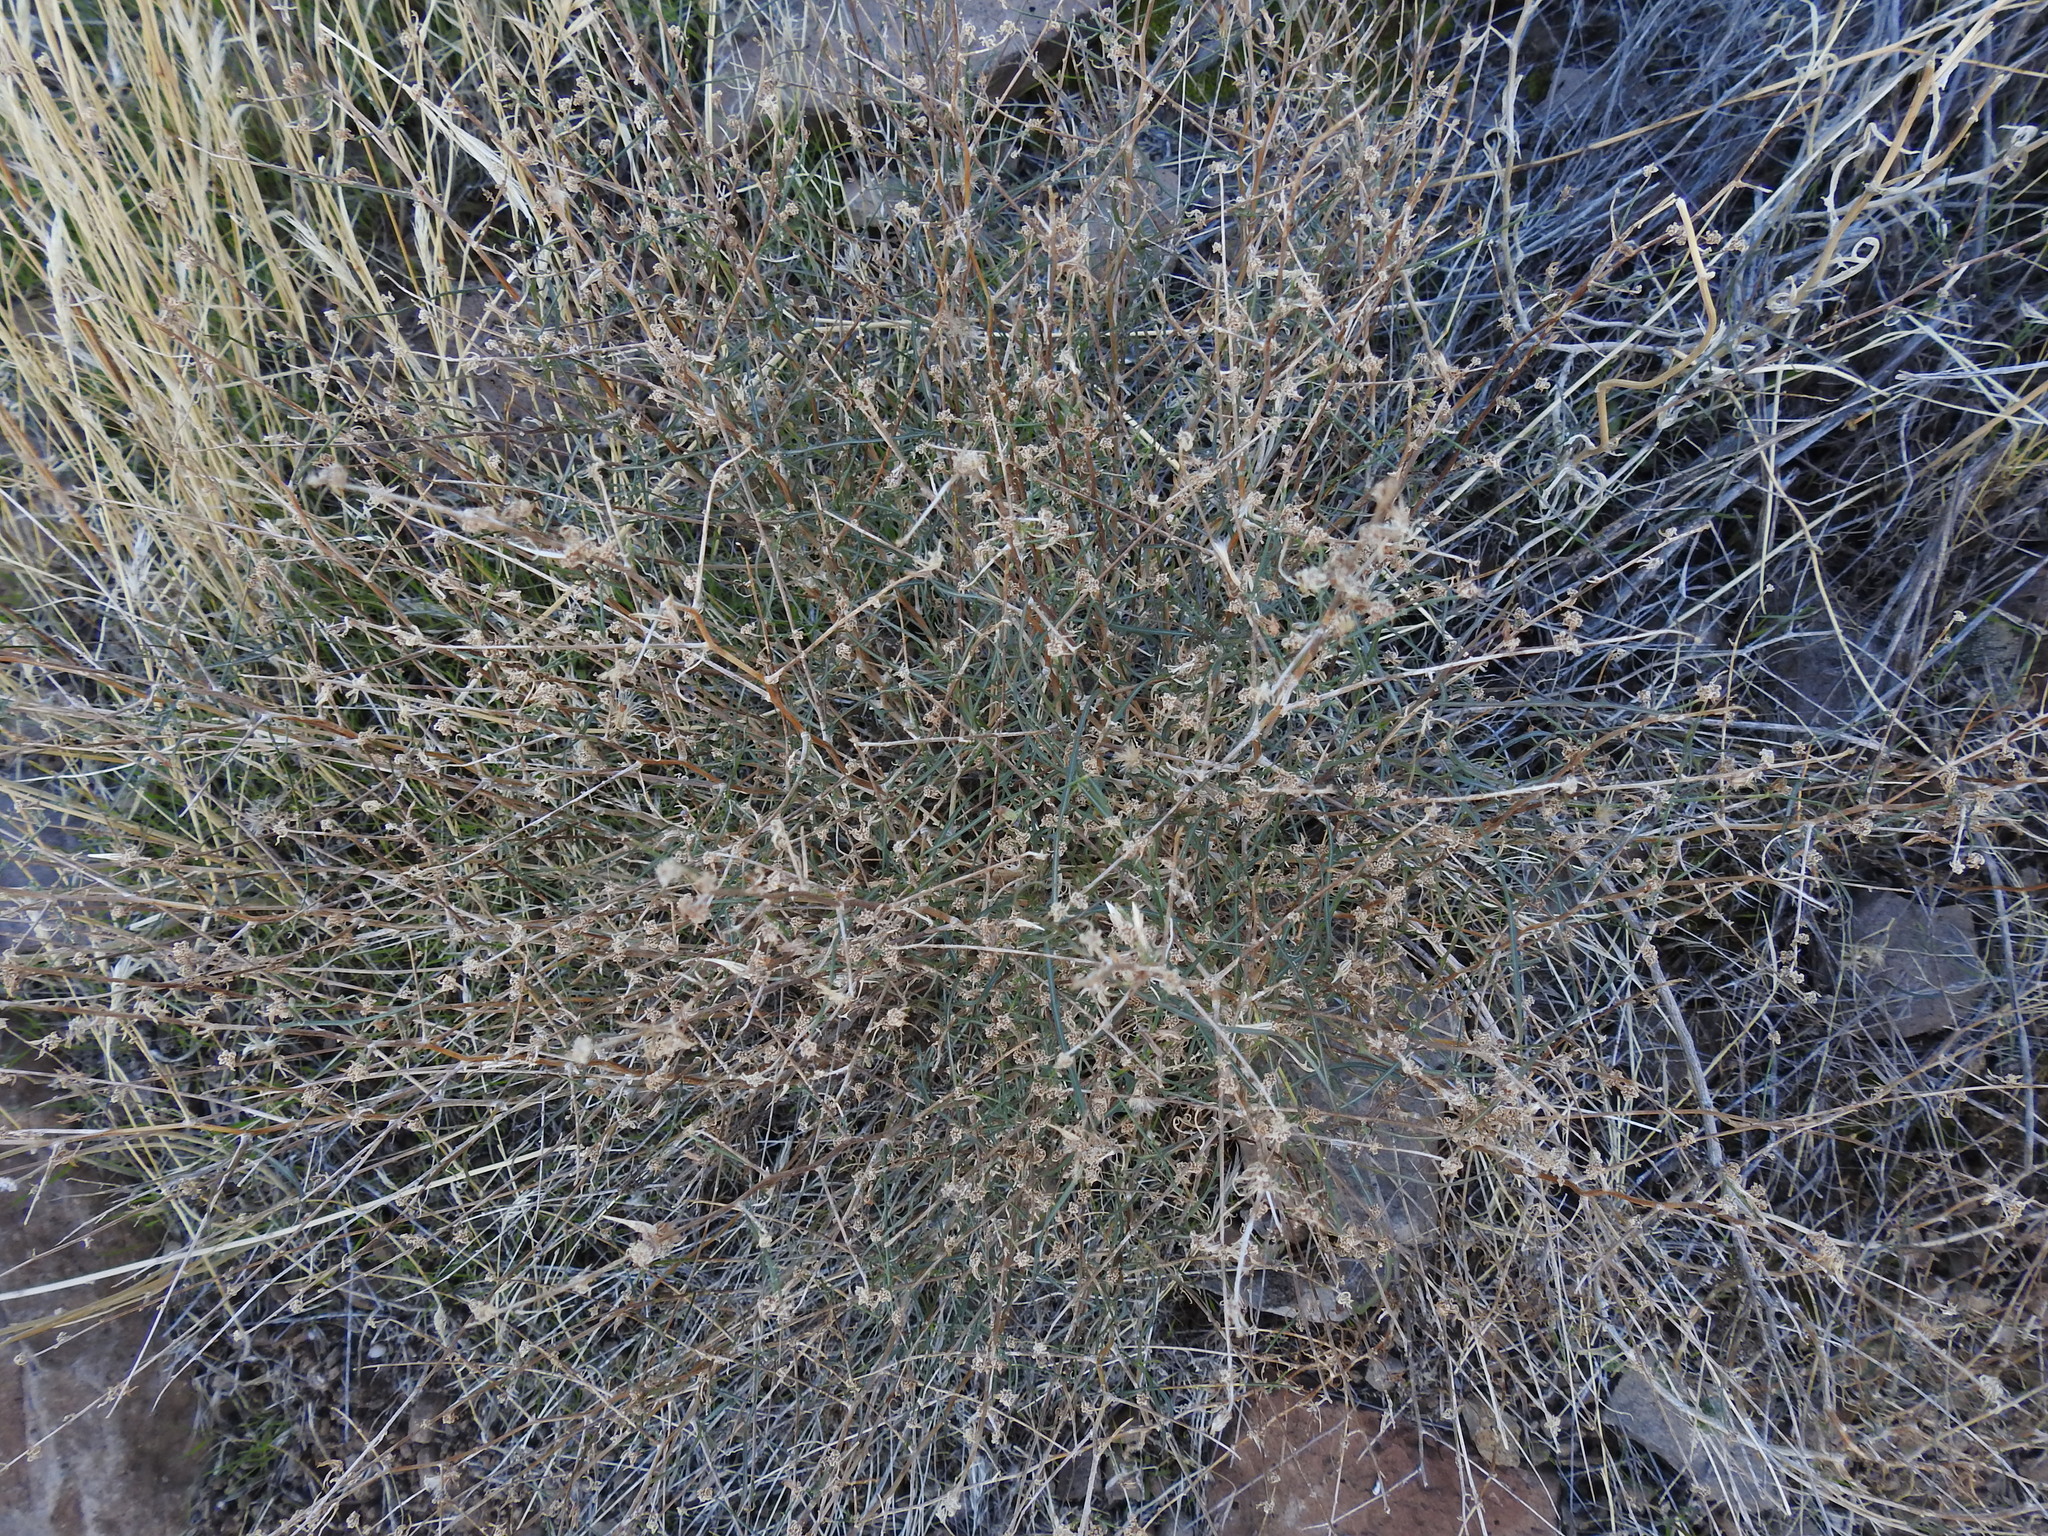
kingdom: Plantae
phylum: Tracheophyta
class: Magnoliopsida
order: Asterales
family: Asteraceae
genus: Stephanomeria
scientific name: Stephanomeria pauciflora
